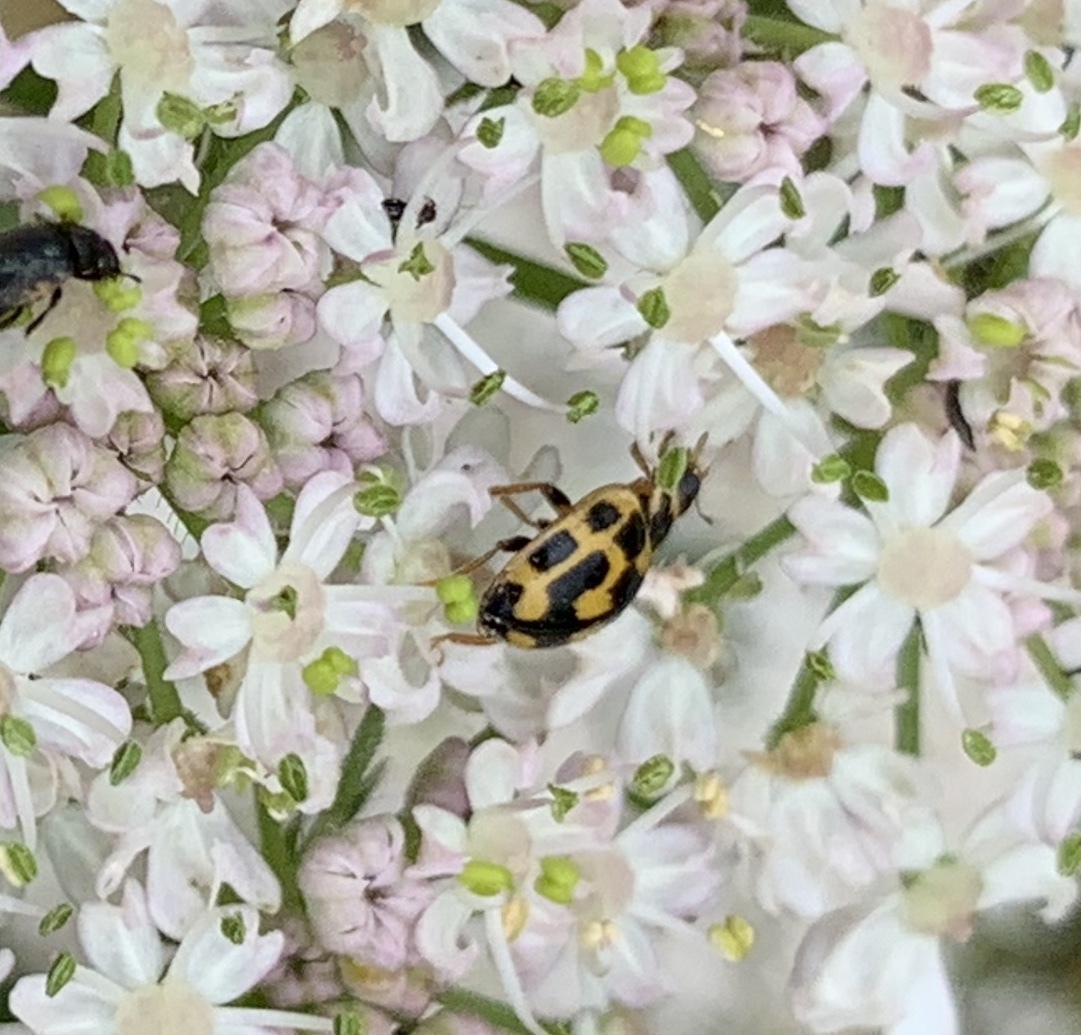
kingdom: Animalia
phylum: Arthropoda
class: Insecta
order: Coleoptera
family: Coccinellidae
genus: Propylaea
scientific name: Propylaea quatuordecimpunctata
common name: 14-spotted ladybird beetle
